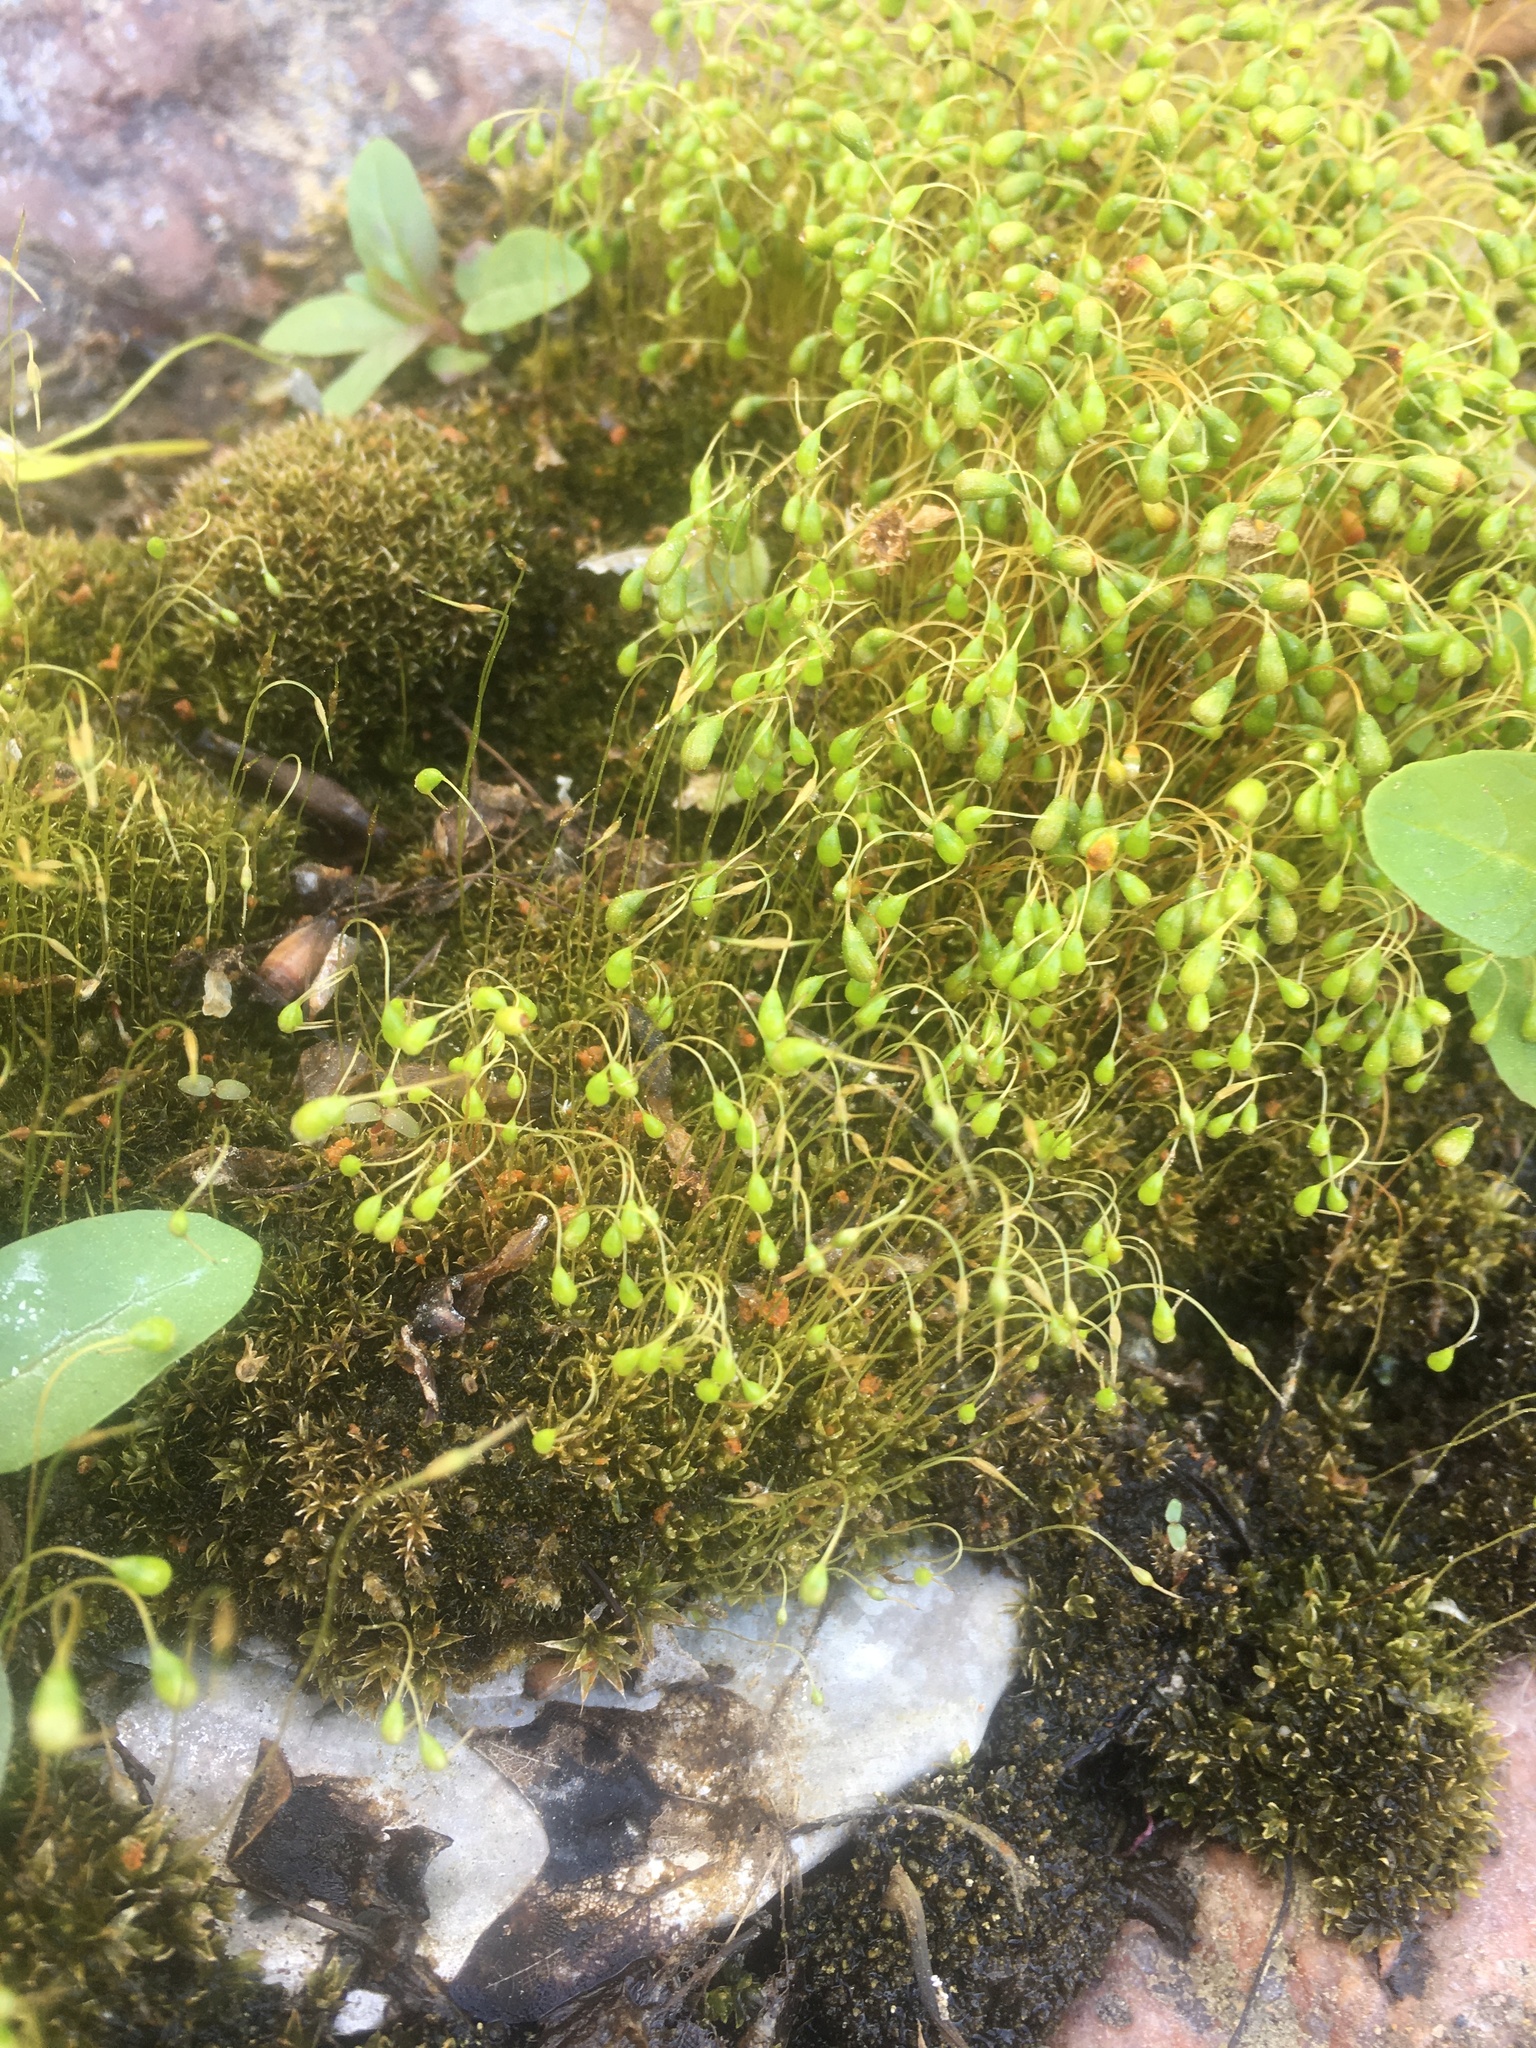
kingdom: Plantae
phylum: Bryophyta
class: Bryopsida
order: Funariales
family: Funariaceae
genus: Funaria
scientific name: Funaria hygrometrica
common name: Common cord moss
